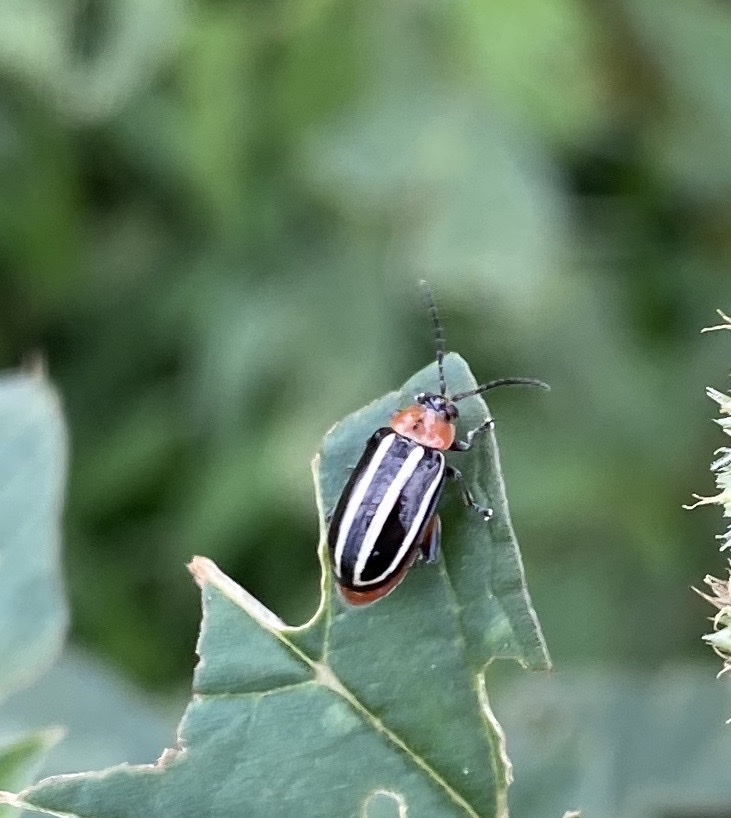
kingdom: Animalia
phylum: Arthropoda
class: Insecta
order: Coleoptera
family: Chrysomelidae
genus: Disonycha
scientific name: Disonycha glabrata
